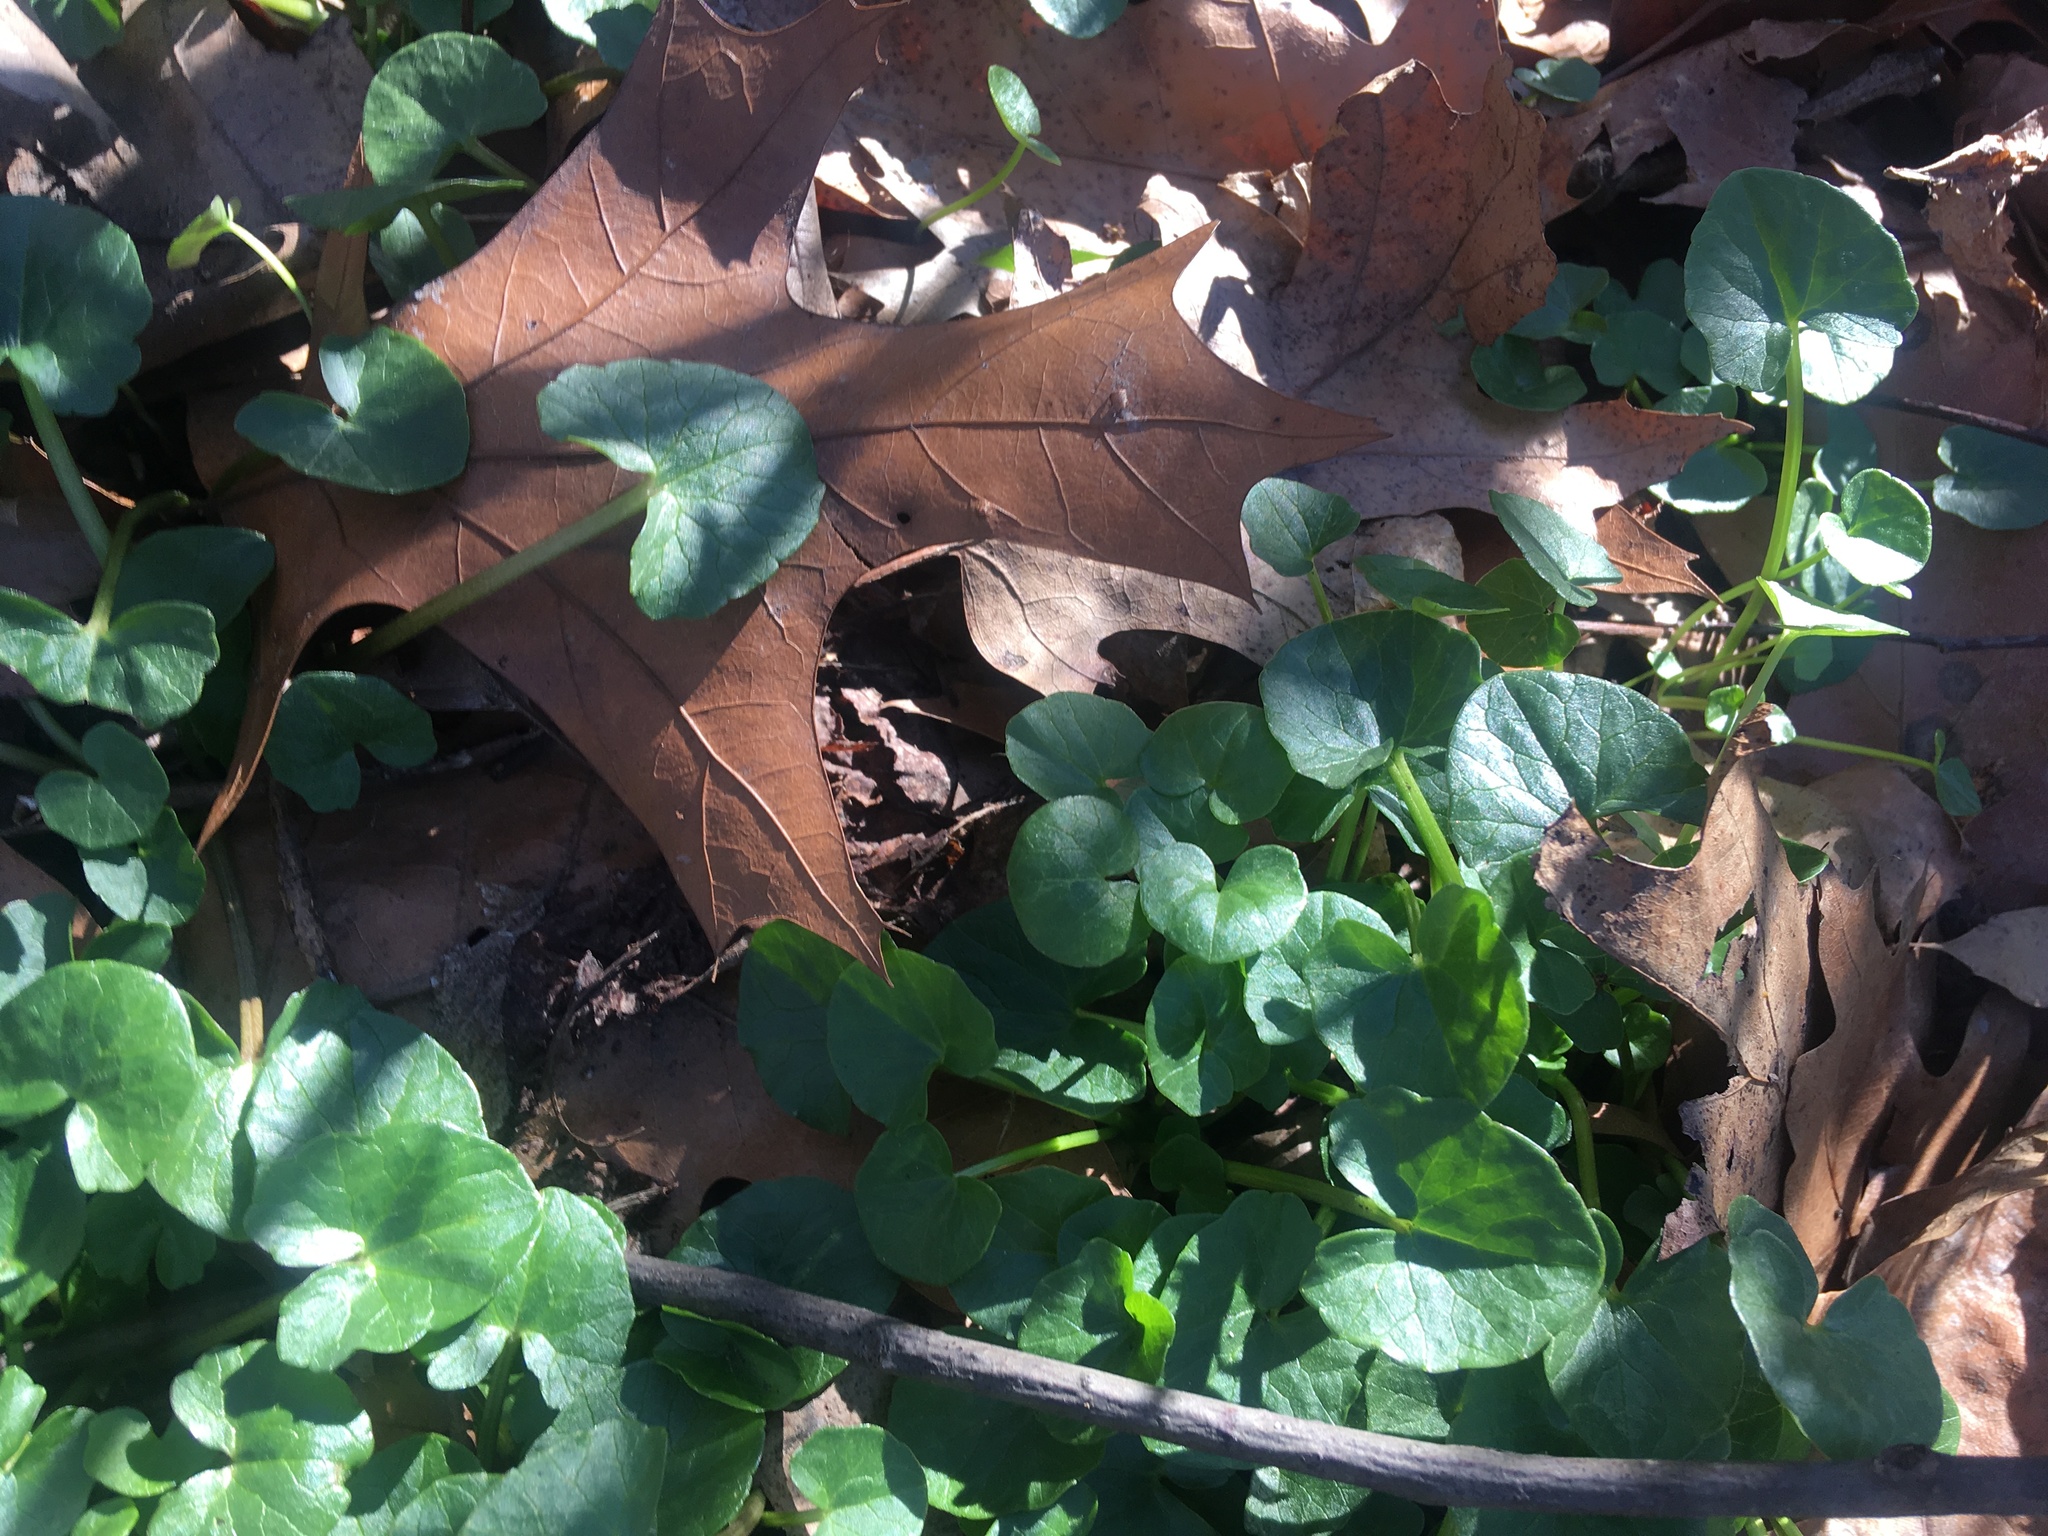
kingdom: Plantae
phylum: Tracheophyta
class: Magnoliopsida
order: Ranunculales
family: Ranunculaceae
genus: Ficaria
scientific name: Ficaria verna
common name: Lesser celandine
